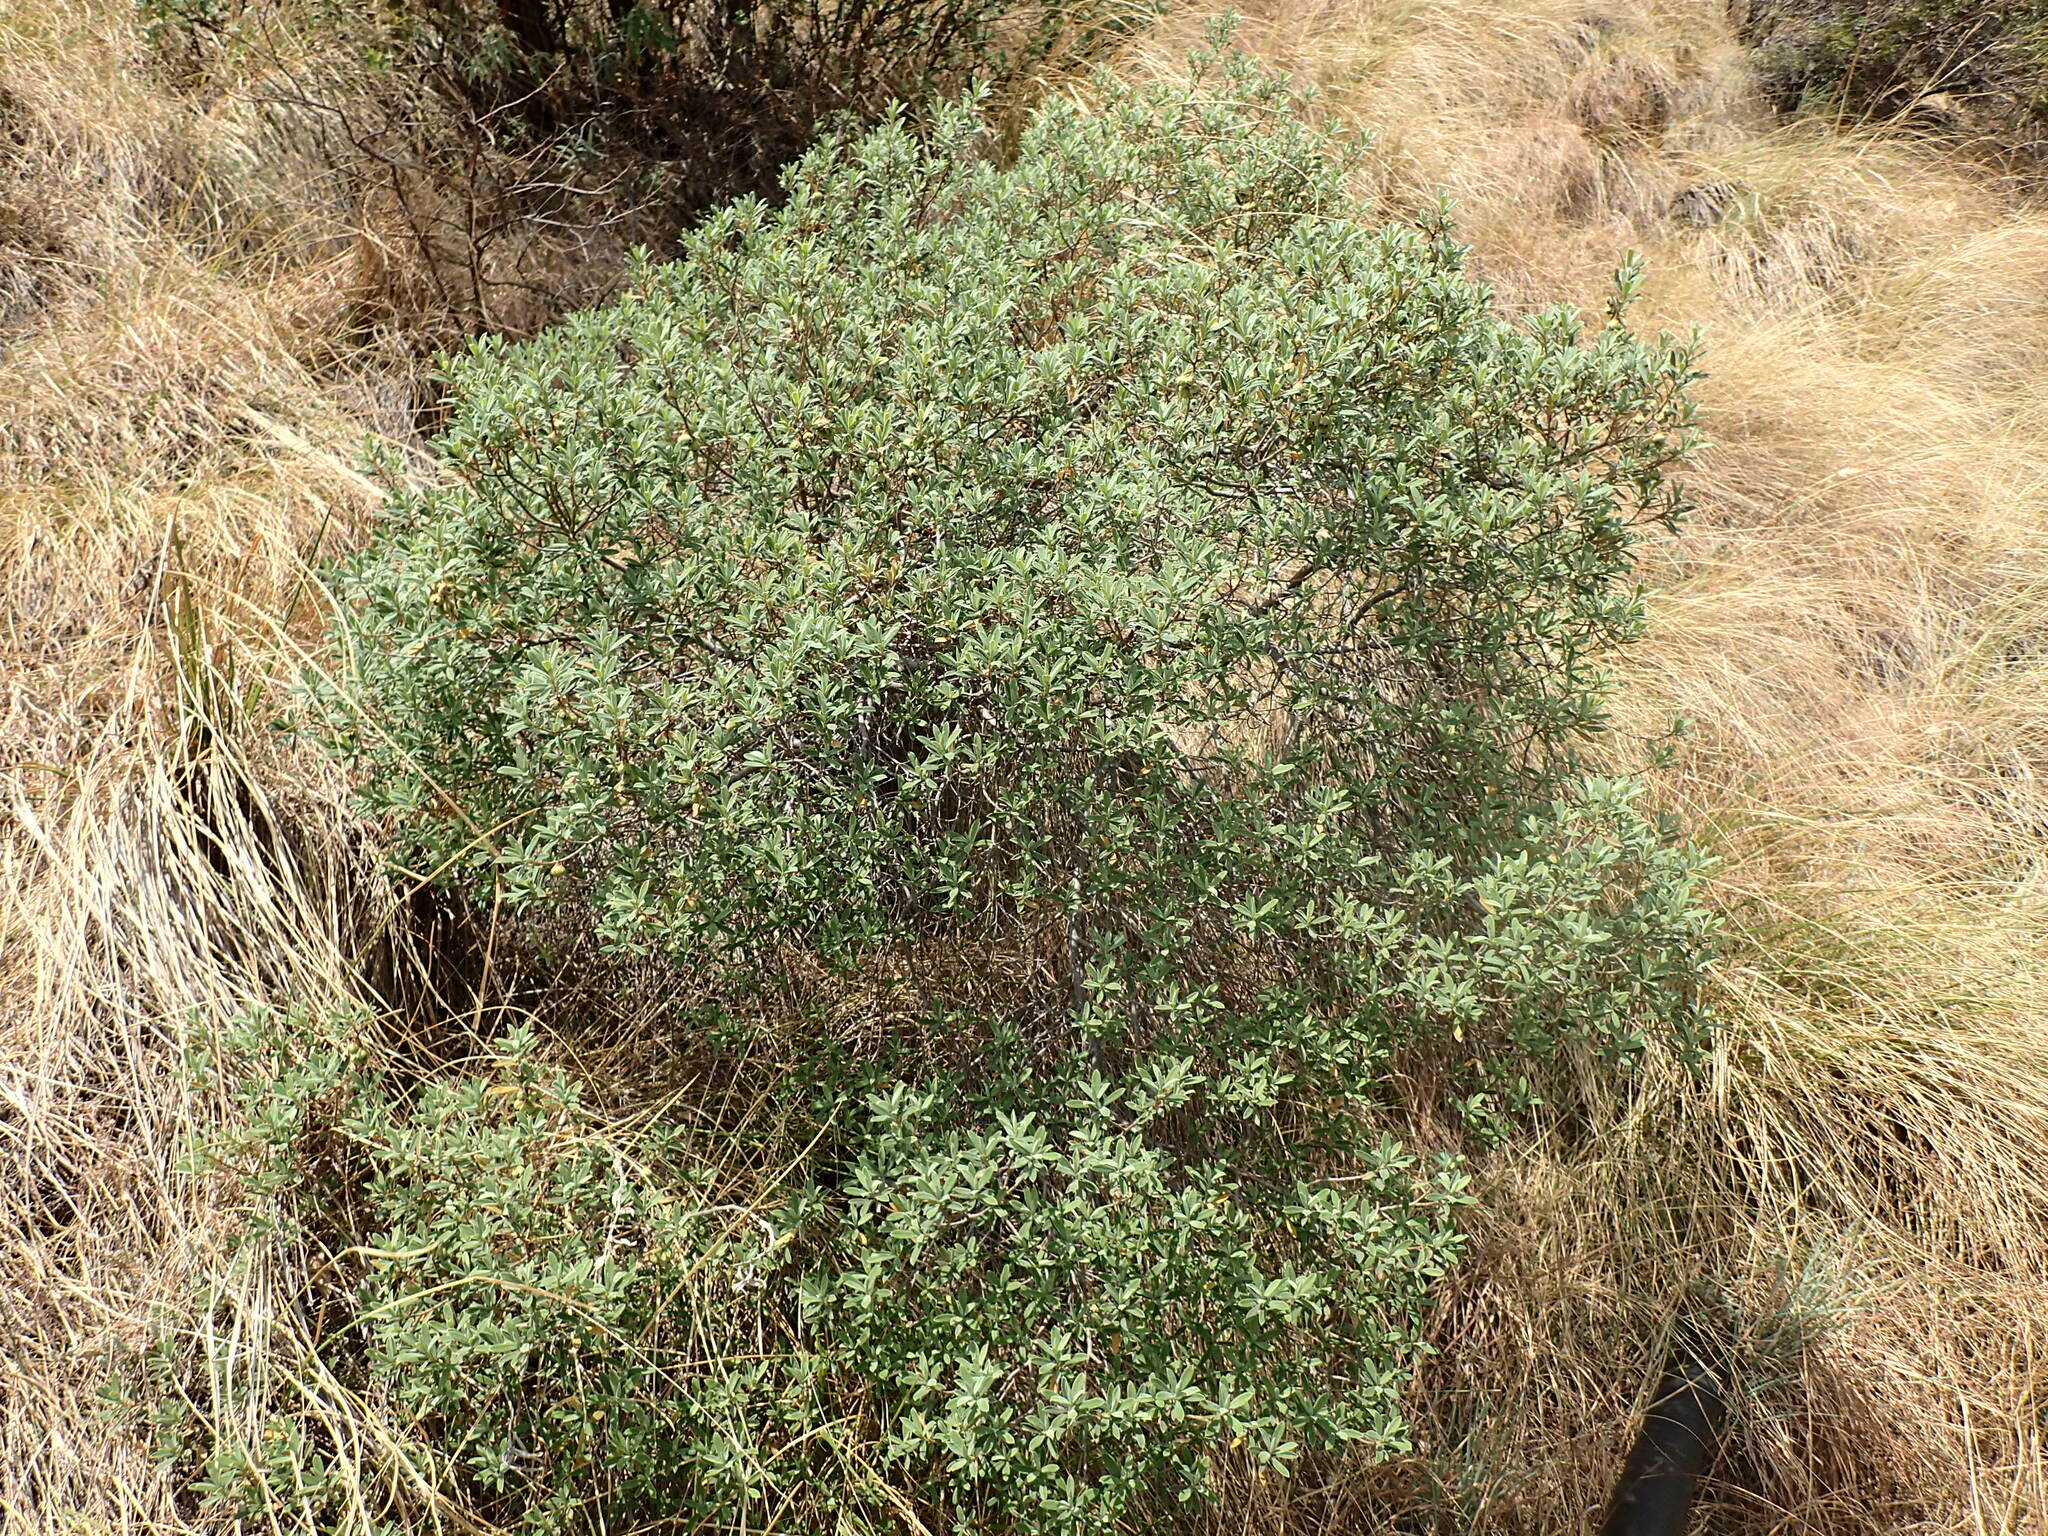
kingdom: Plantae
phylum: Tracheophyta
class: Magnoliopsida
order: Ericales
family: Ebenaceae
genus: Diospyros
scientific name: Diospyros pubescens
